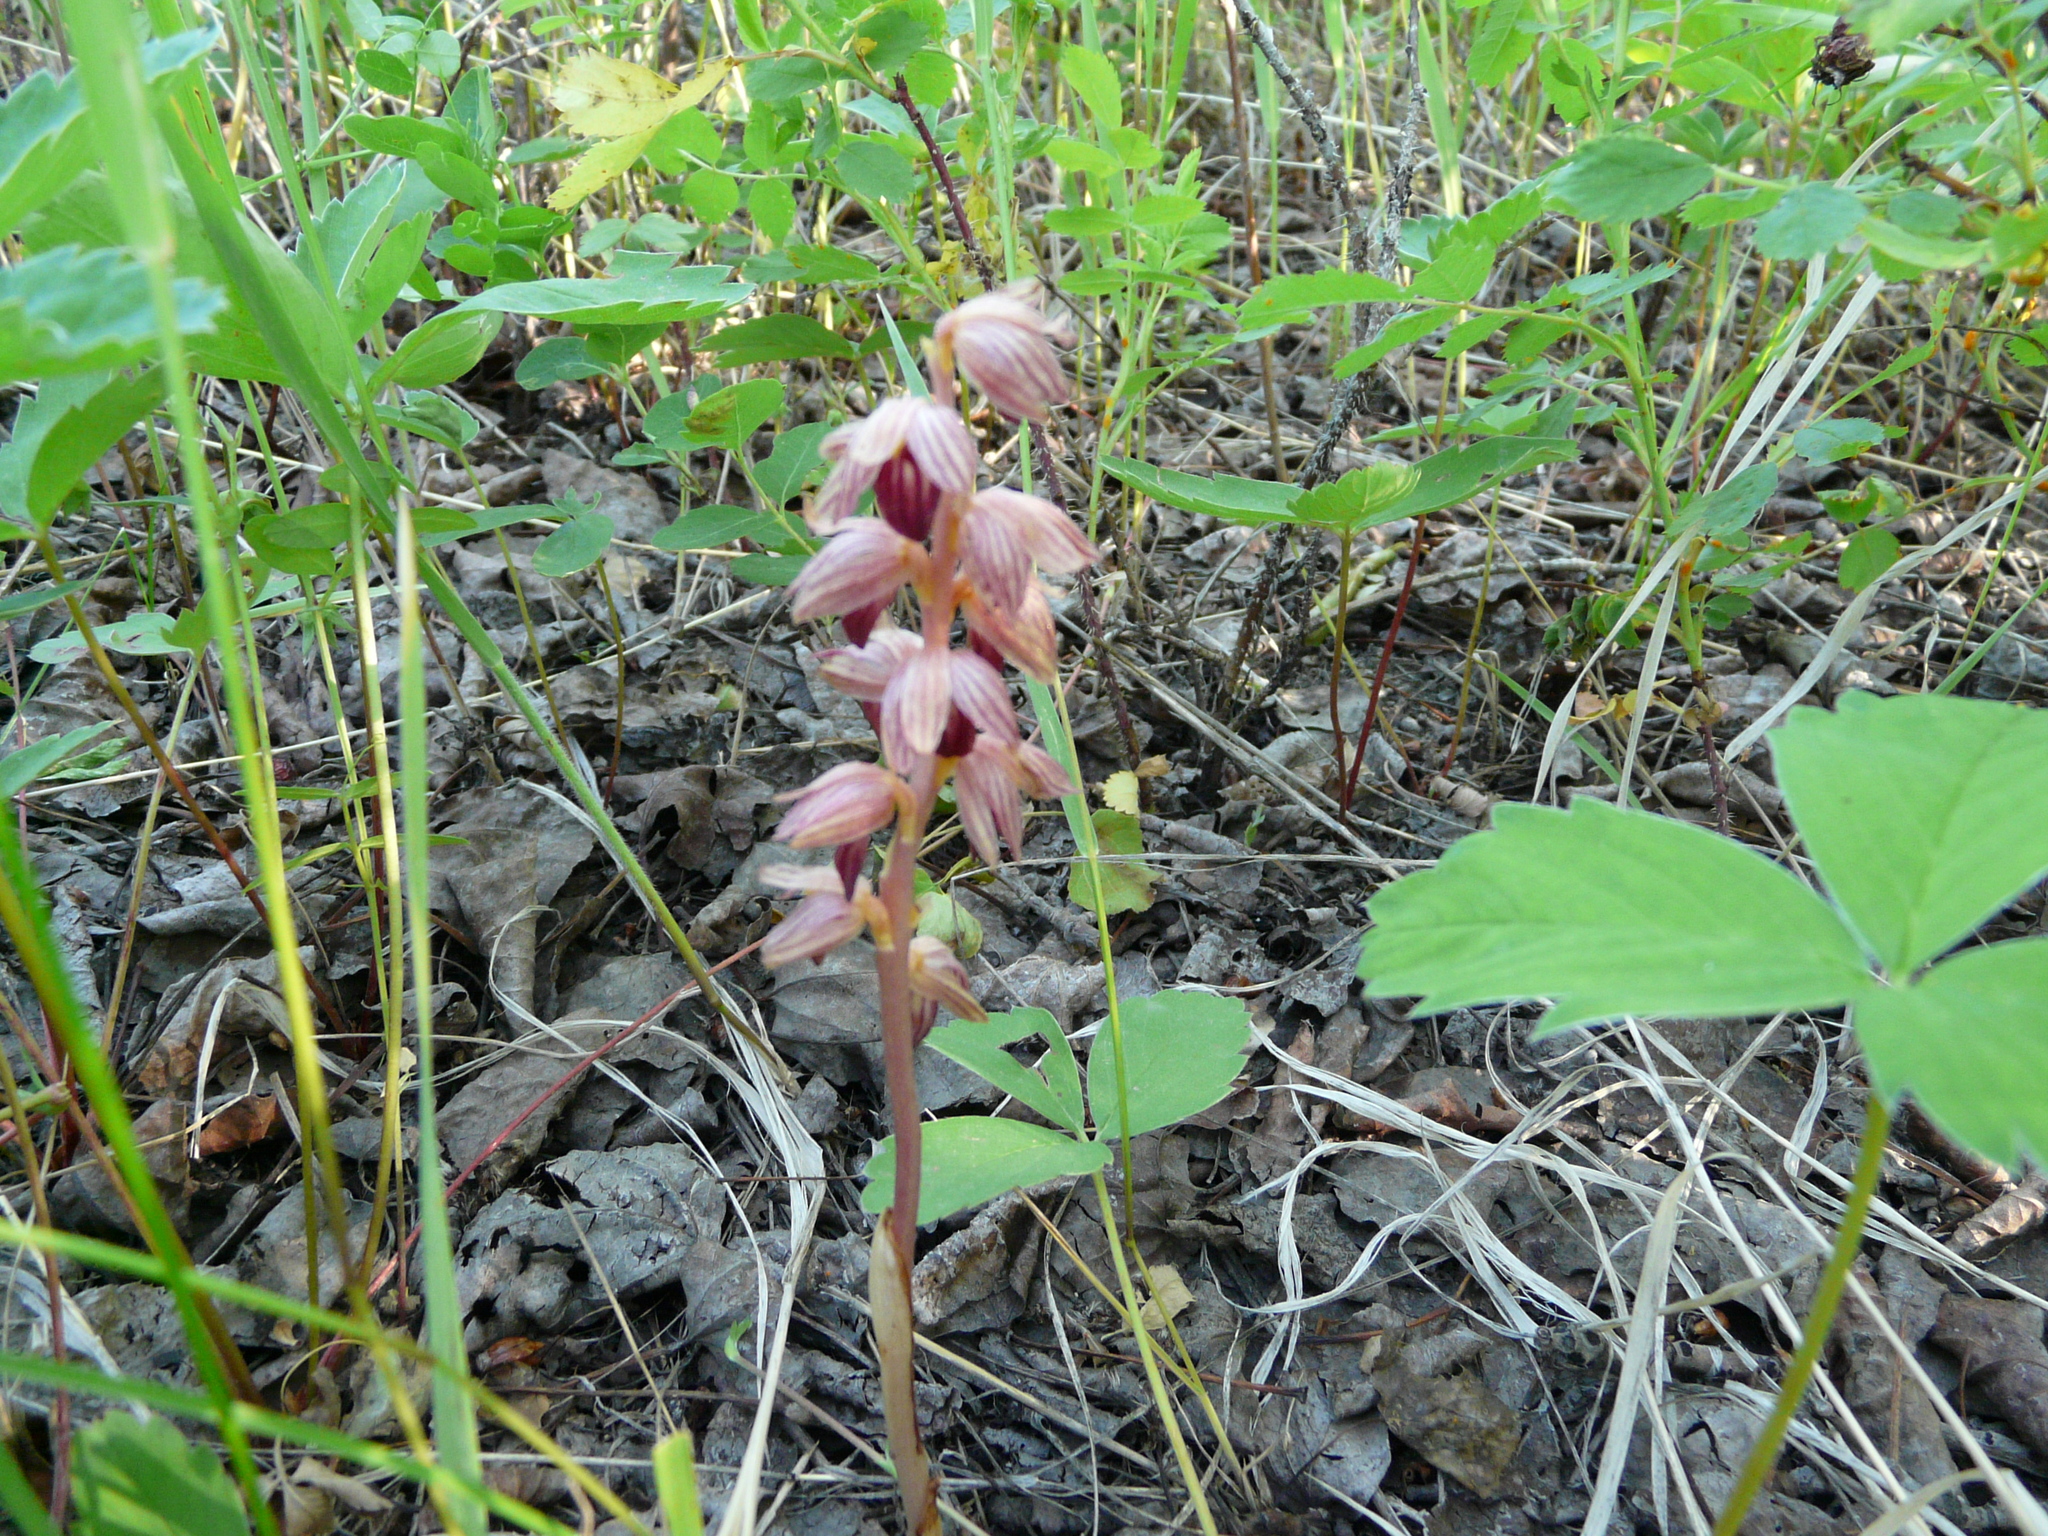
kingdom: Plantae
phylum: Tracheophyta
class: Liliopsida
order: Asparagales
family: Orchidaceae
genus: Corallorhiza
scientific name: Corallorhiza striata
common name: Hooded coralroot
